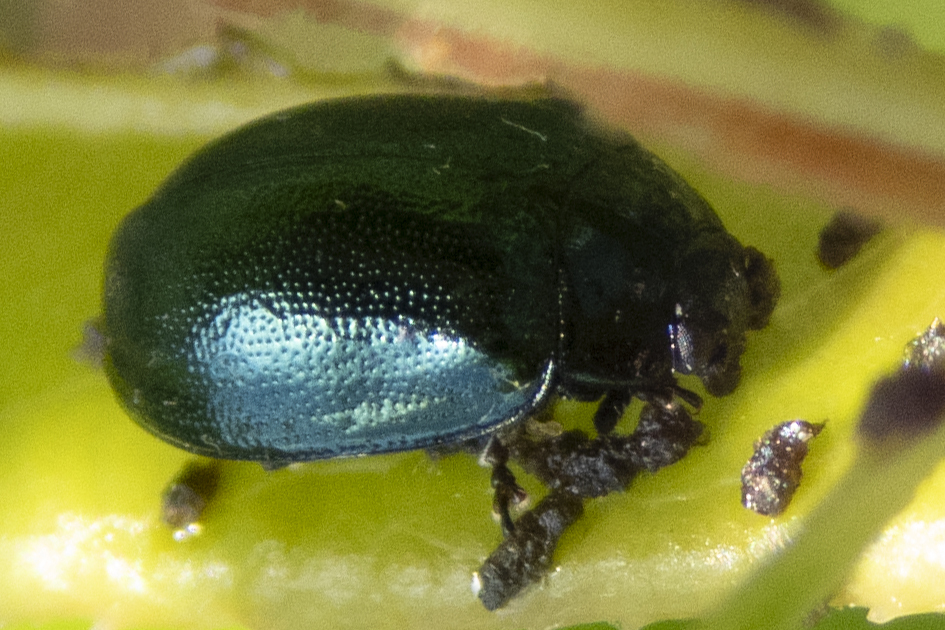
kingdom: Animalia
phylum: Arthropoda
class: Insecta
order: Coleoptera
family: Chrysomelidae
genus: Plagiodera
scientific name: Plagiodera versicolora
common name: Imported willow leaf beetle
